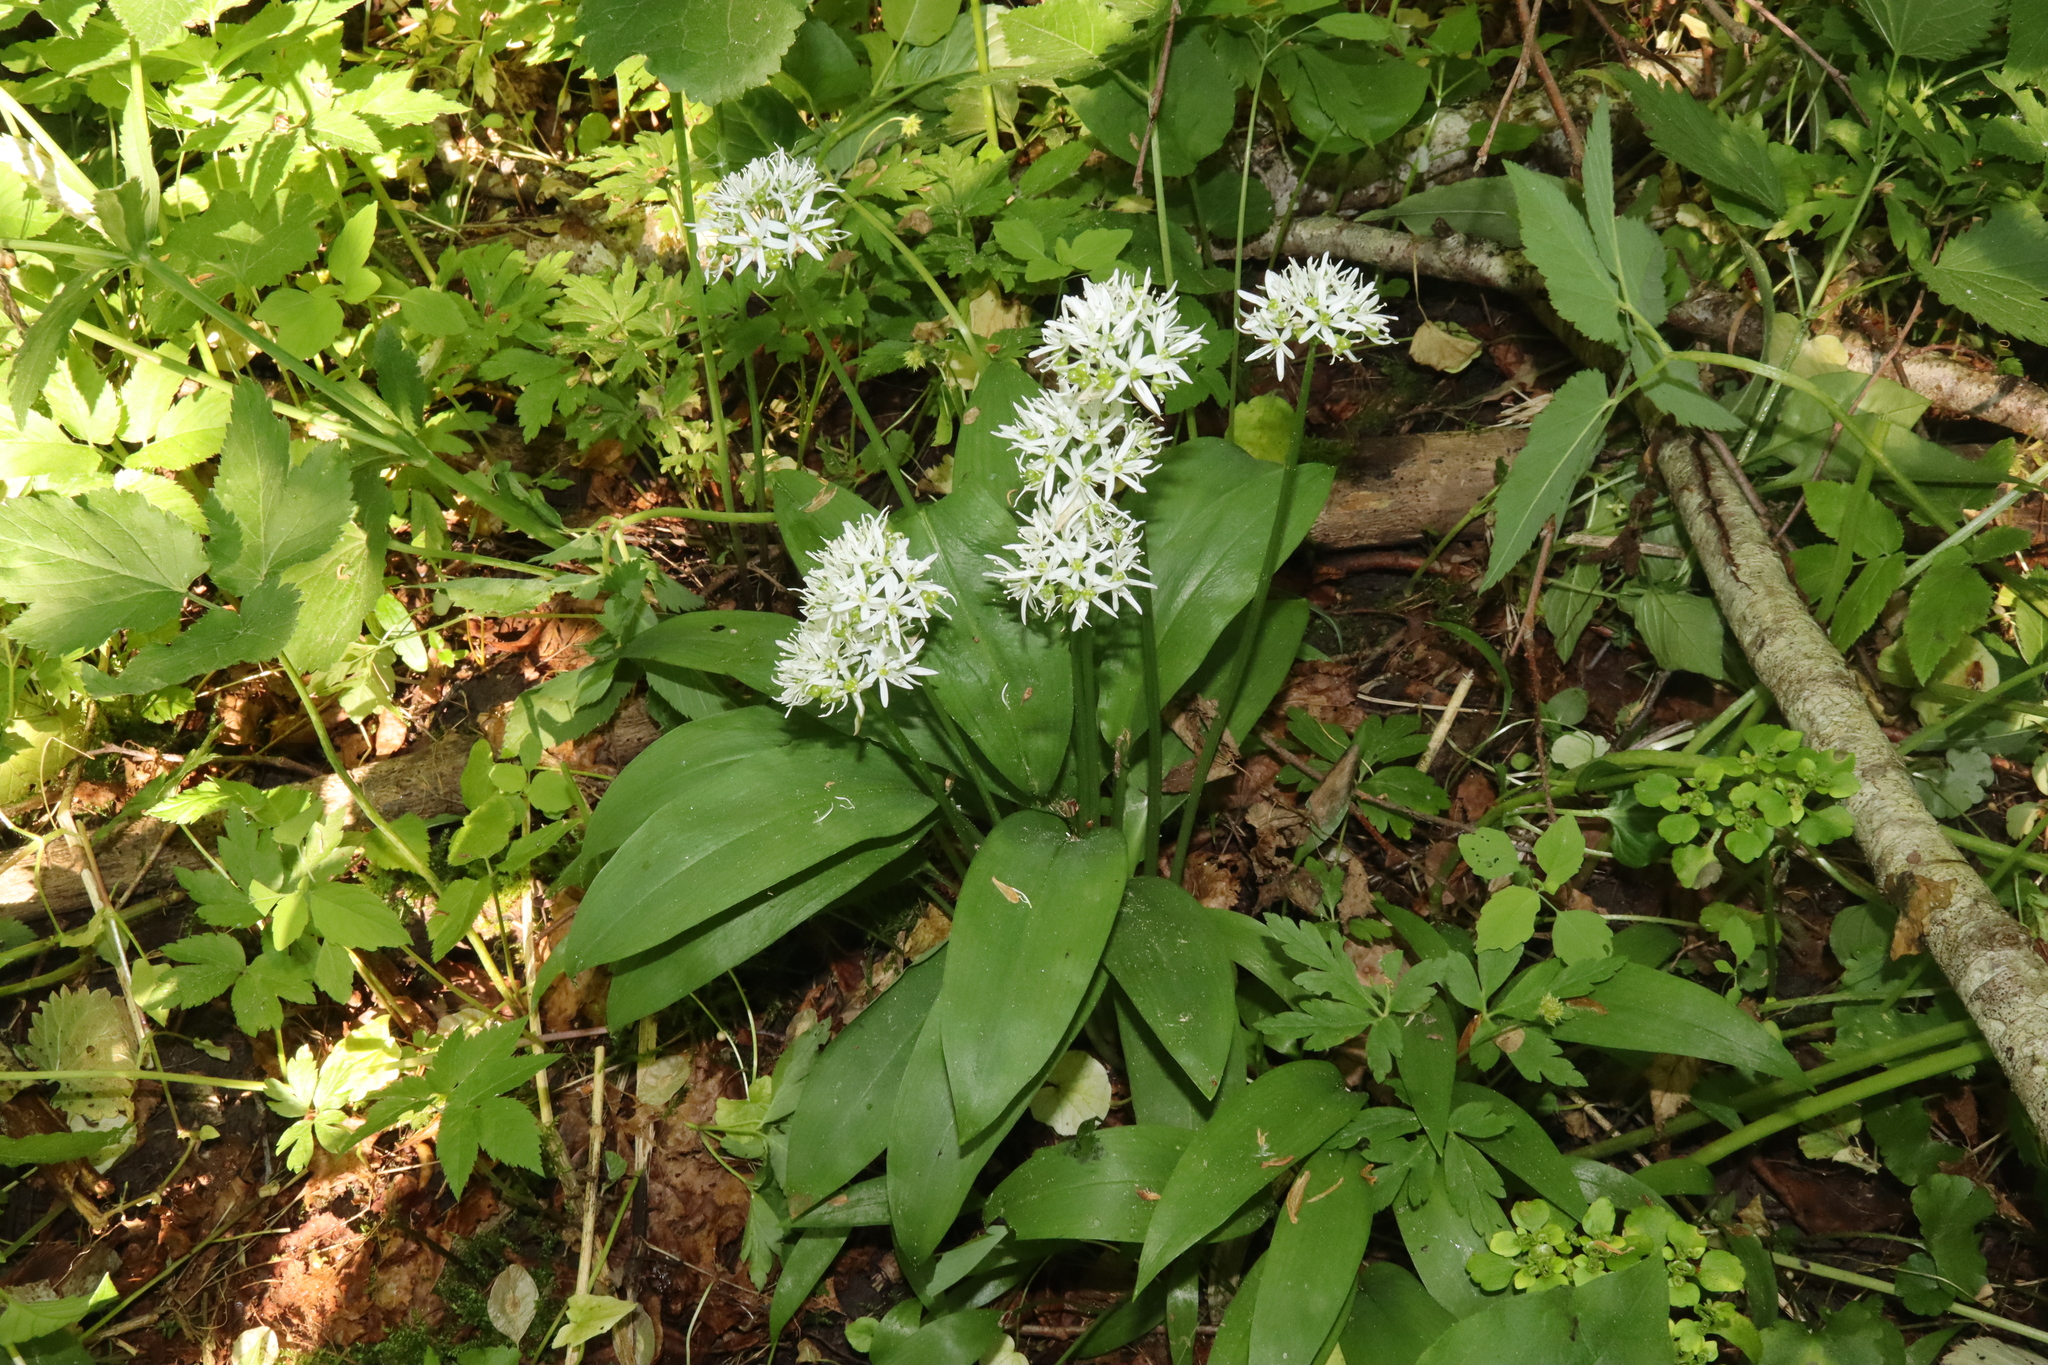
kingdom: Plantae
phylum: Tracheophyta
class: Liliopsida
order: Asparagales
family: Amaryllidaceae
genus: Allium
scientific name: Allium ursinum
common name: Ramsons
